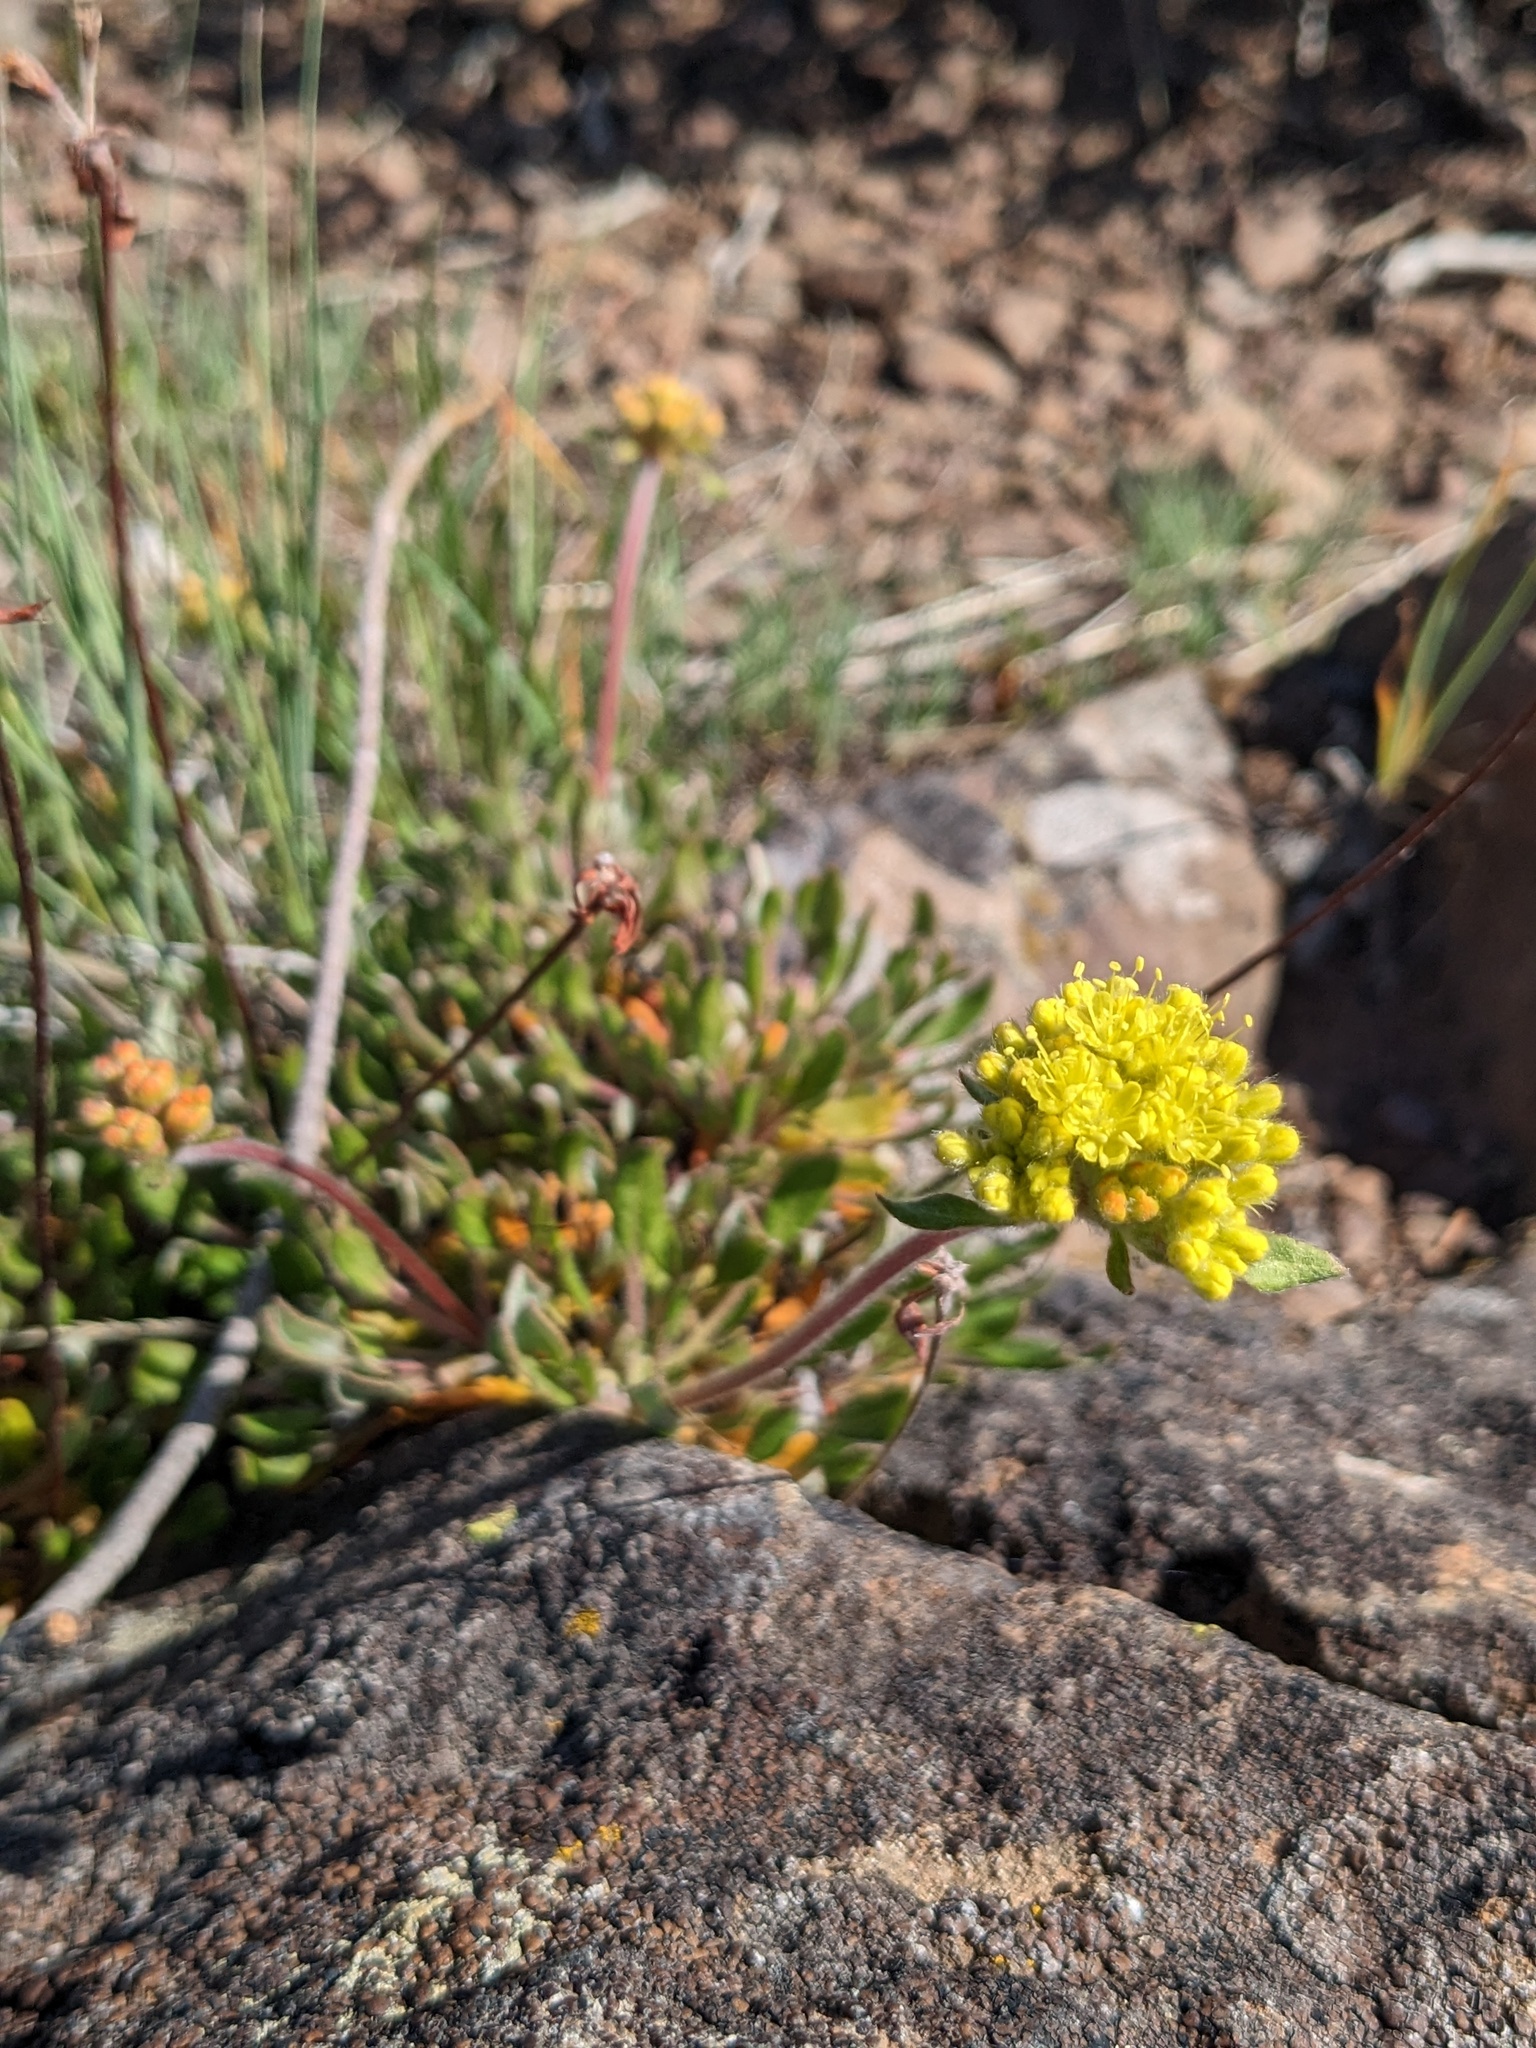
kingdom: Plantae
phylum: Tracheophyta
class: Magnoliopsida
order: Caryophyllales
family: Polygonaceae
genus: Eriogonum
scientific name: Eriogonum flavum
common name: Alpine golden wild buckwheat
